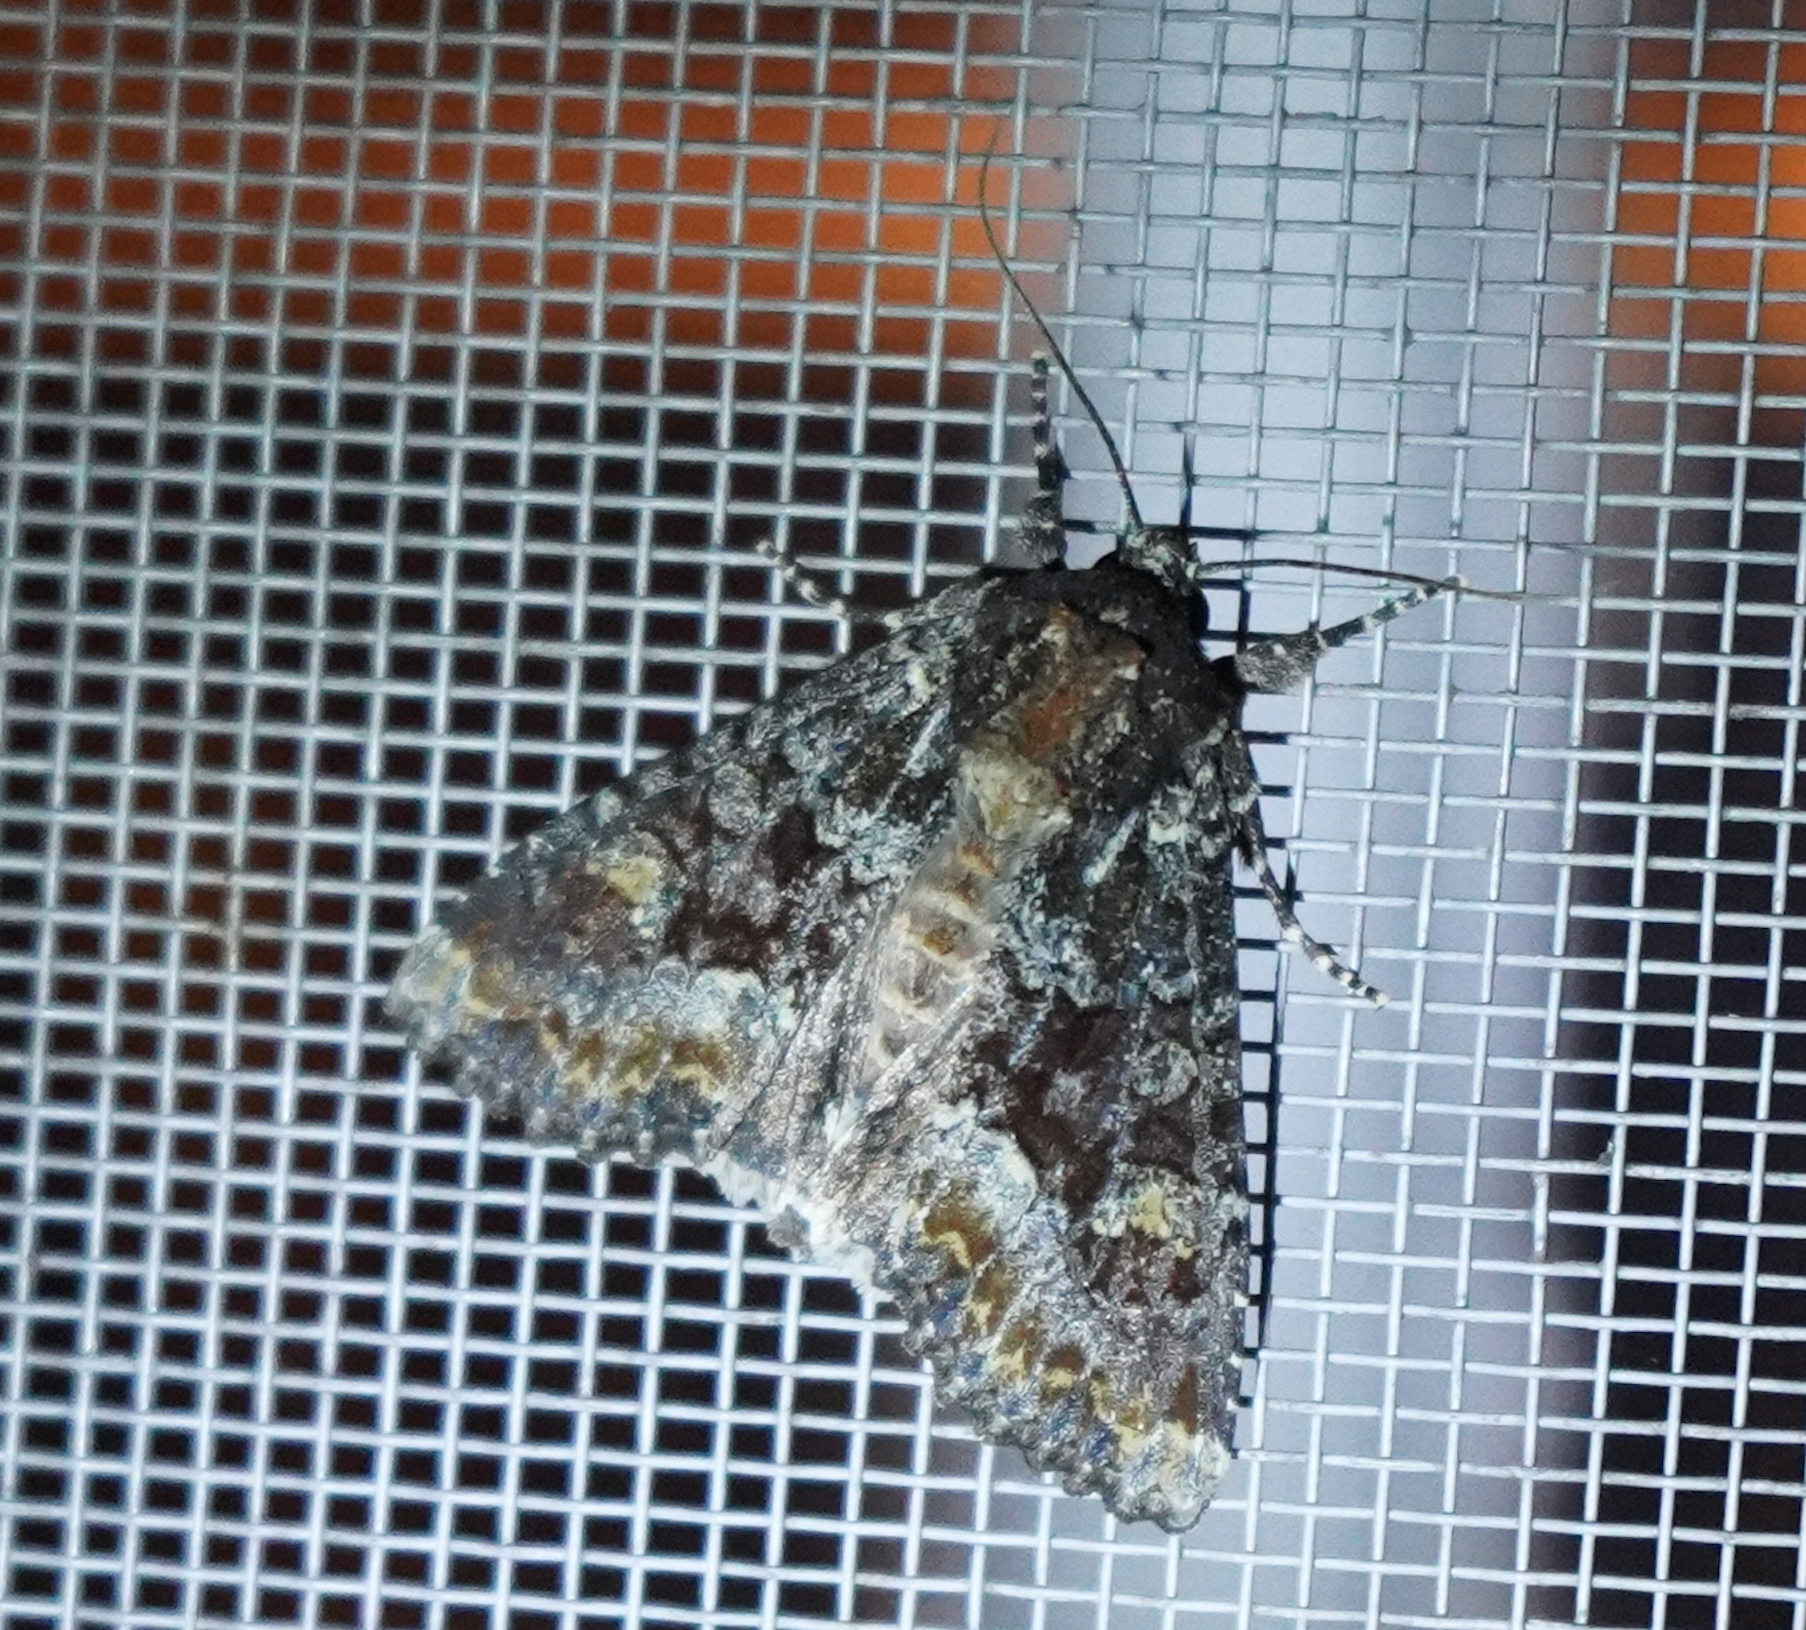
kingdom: Animalia
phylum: Arthropoda
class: Insecta
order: Lepidoptera
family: Noctuidae
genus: Apamea
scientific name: Apamea amputatrix
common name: Yellow-headed cutworm moth
